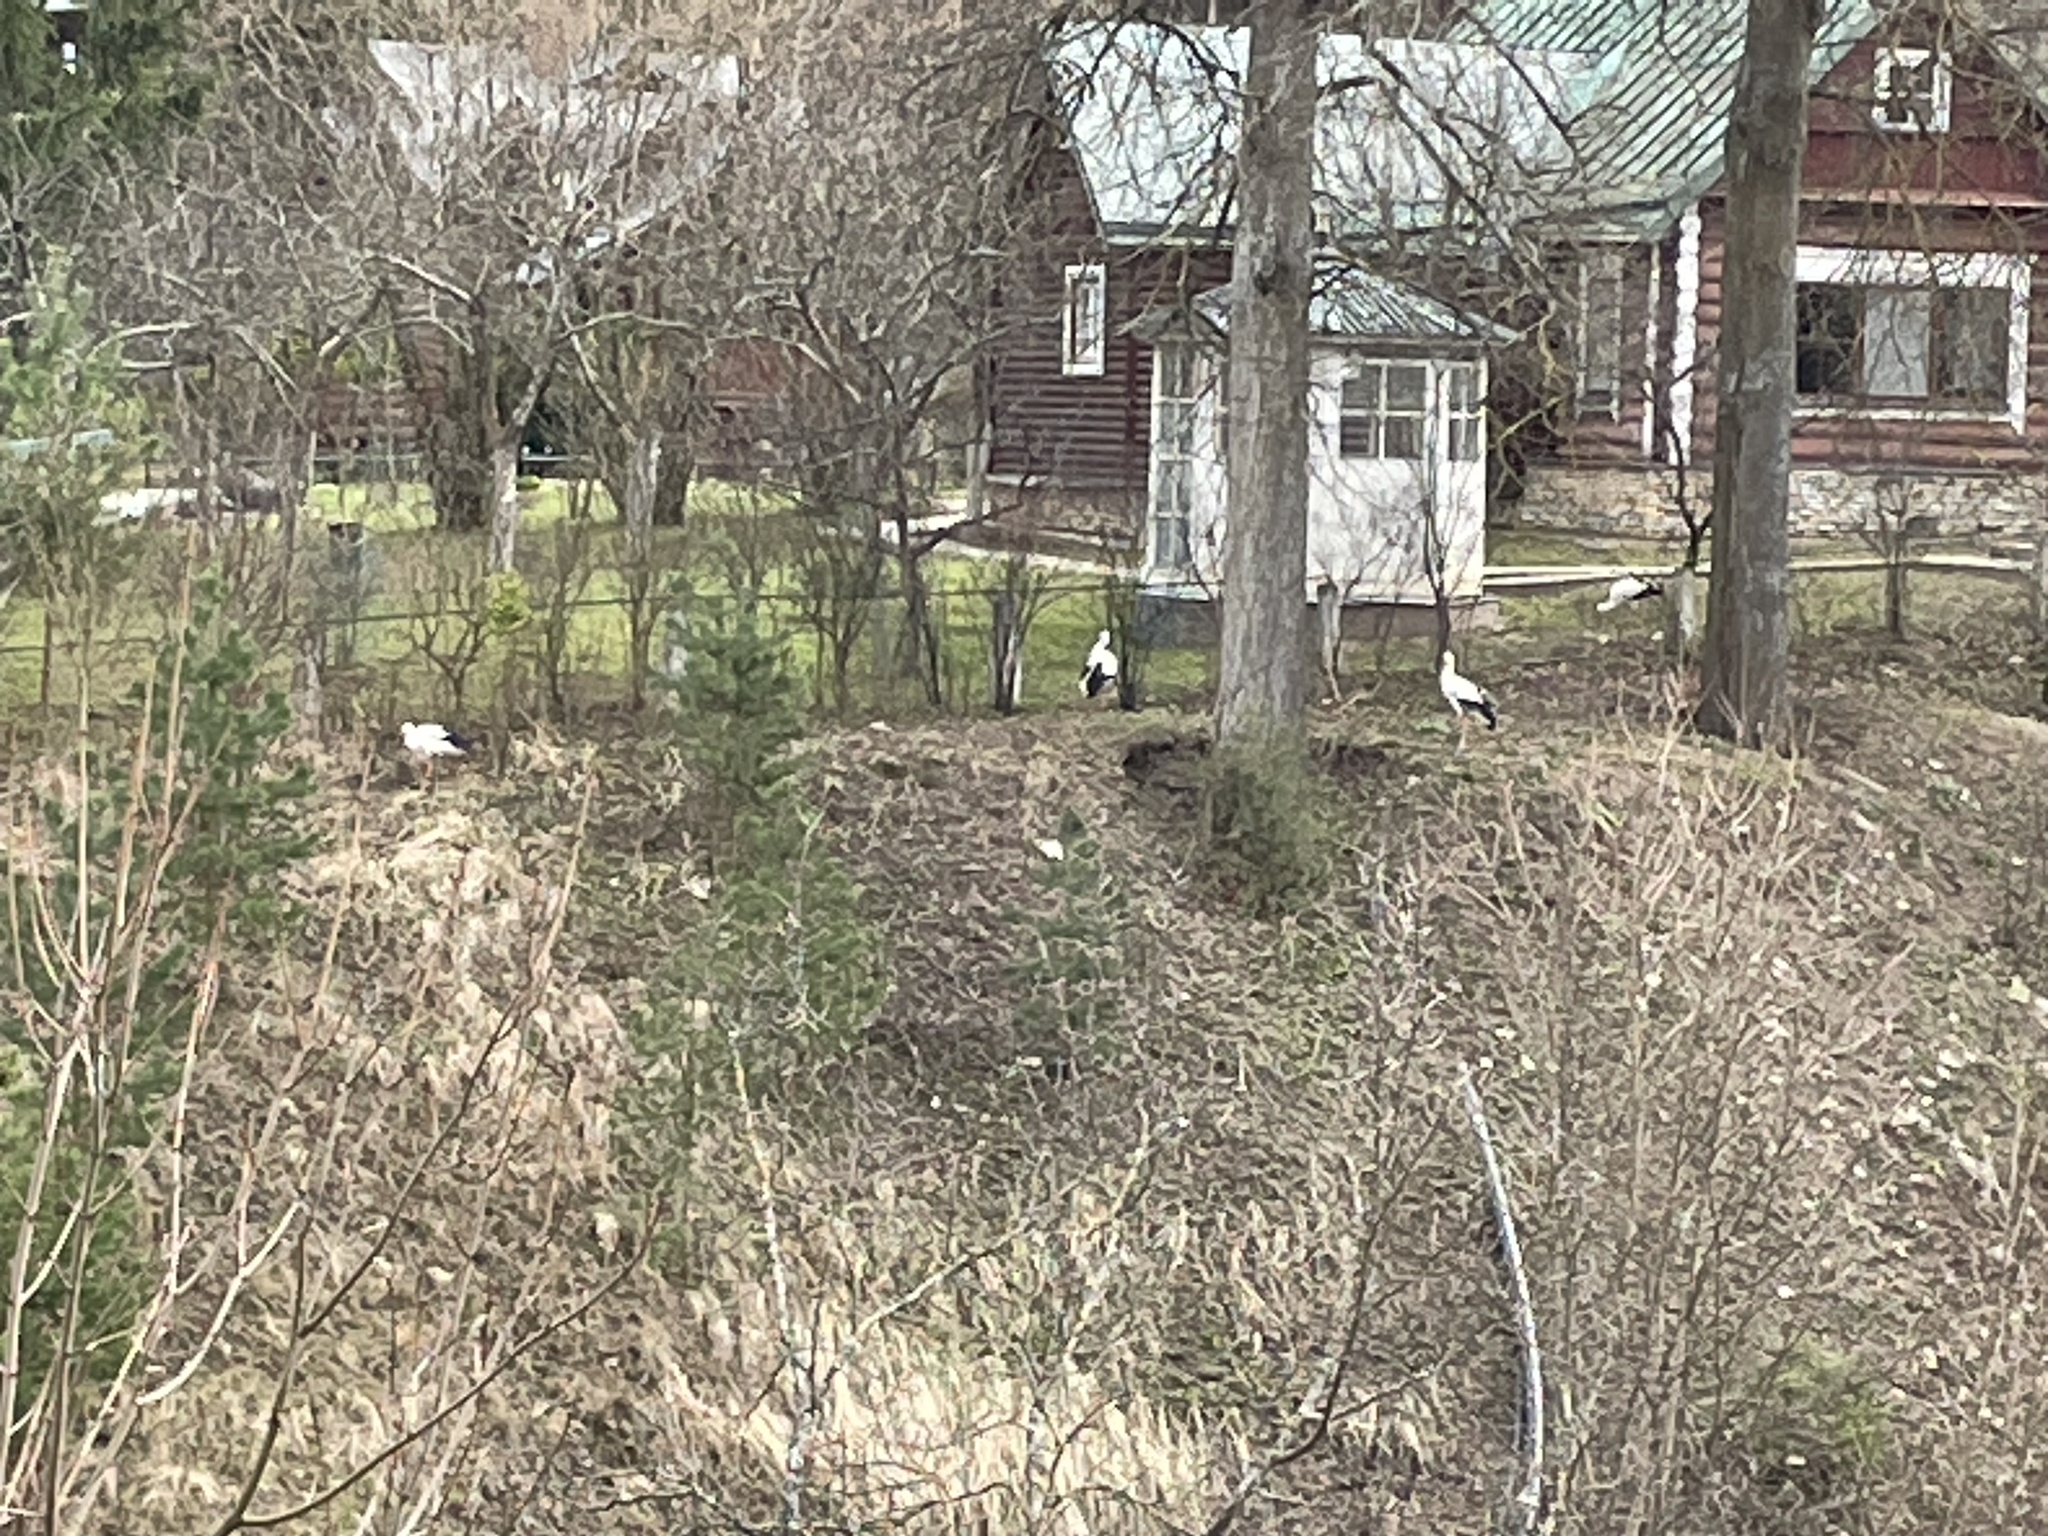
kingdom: Animalia
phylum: Chordata
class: Aves
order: Ciconiiformes
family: Ciconiidae
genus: Ciconia
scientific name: Ciconia ciconia
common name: White stork
